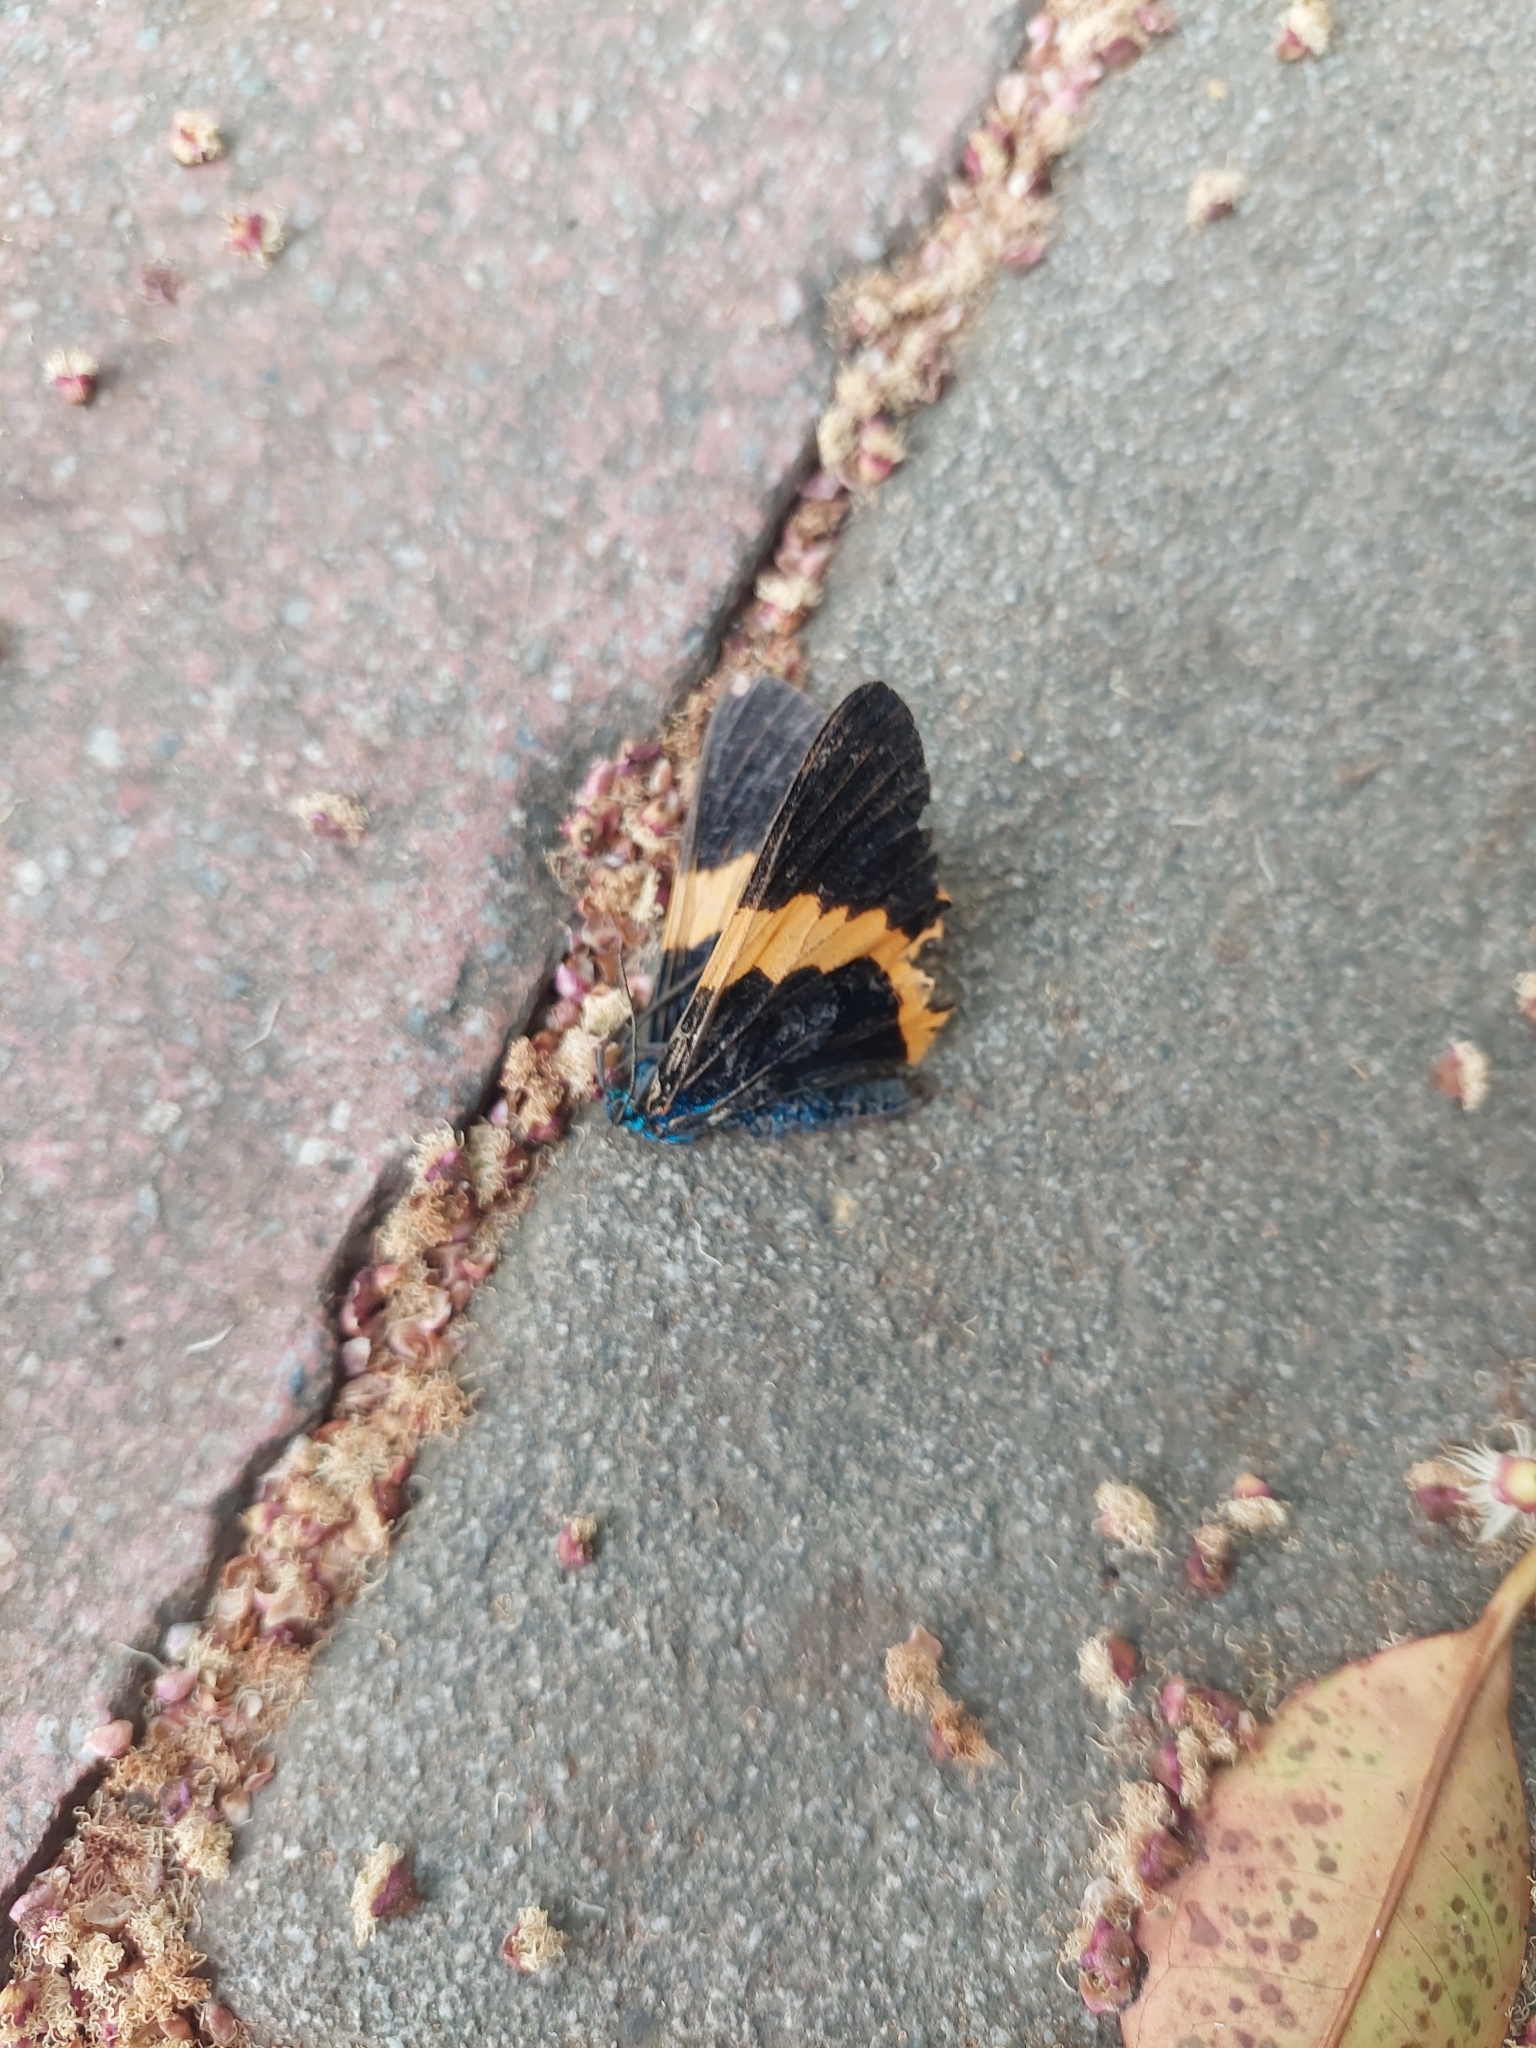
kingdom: Animalia
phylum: Arthropoda
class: Insecta
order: Lepidoptera
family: Geometridae
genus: Milionia
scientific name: Milionia basalis
